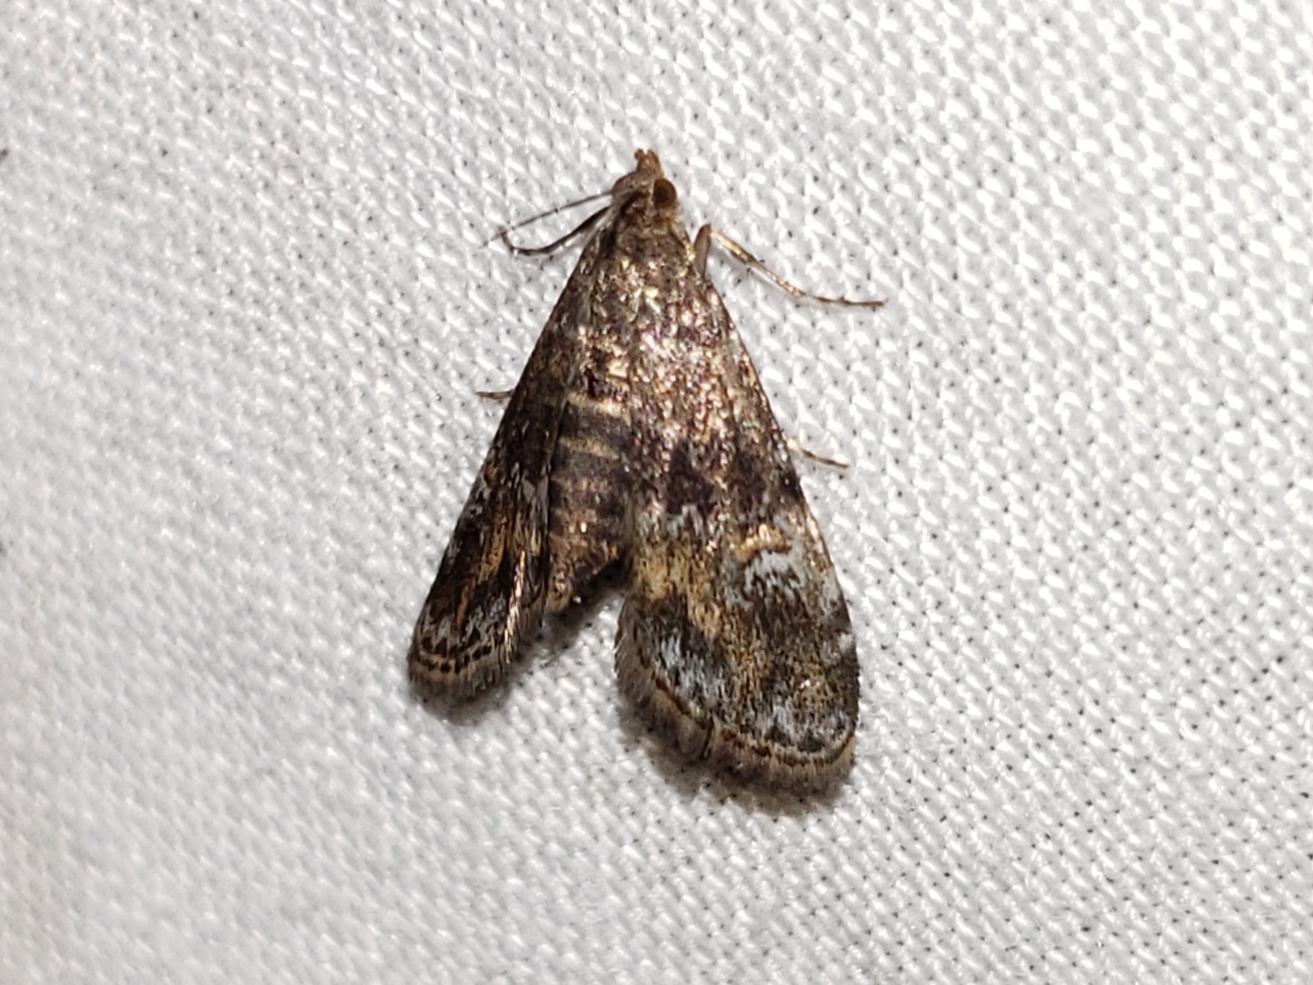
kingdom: Animalia
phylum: Arthropoda
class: Insecta
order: Lepidoptera
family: Crambidae
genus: Elophila
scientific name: Elophila obliteralis
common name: Waterlily leafcutter moth
